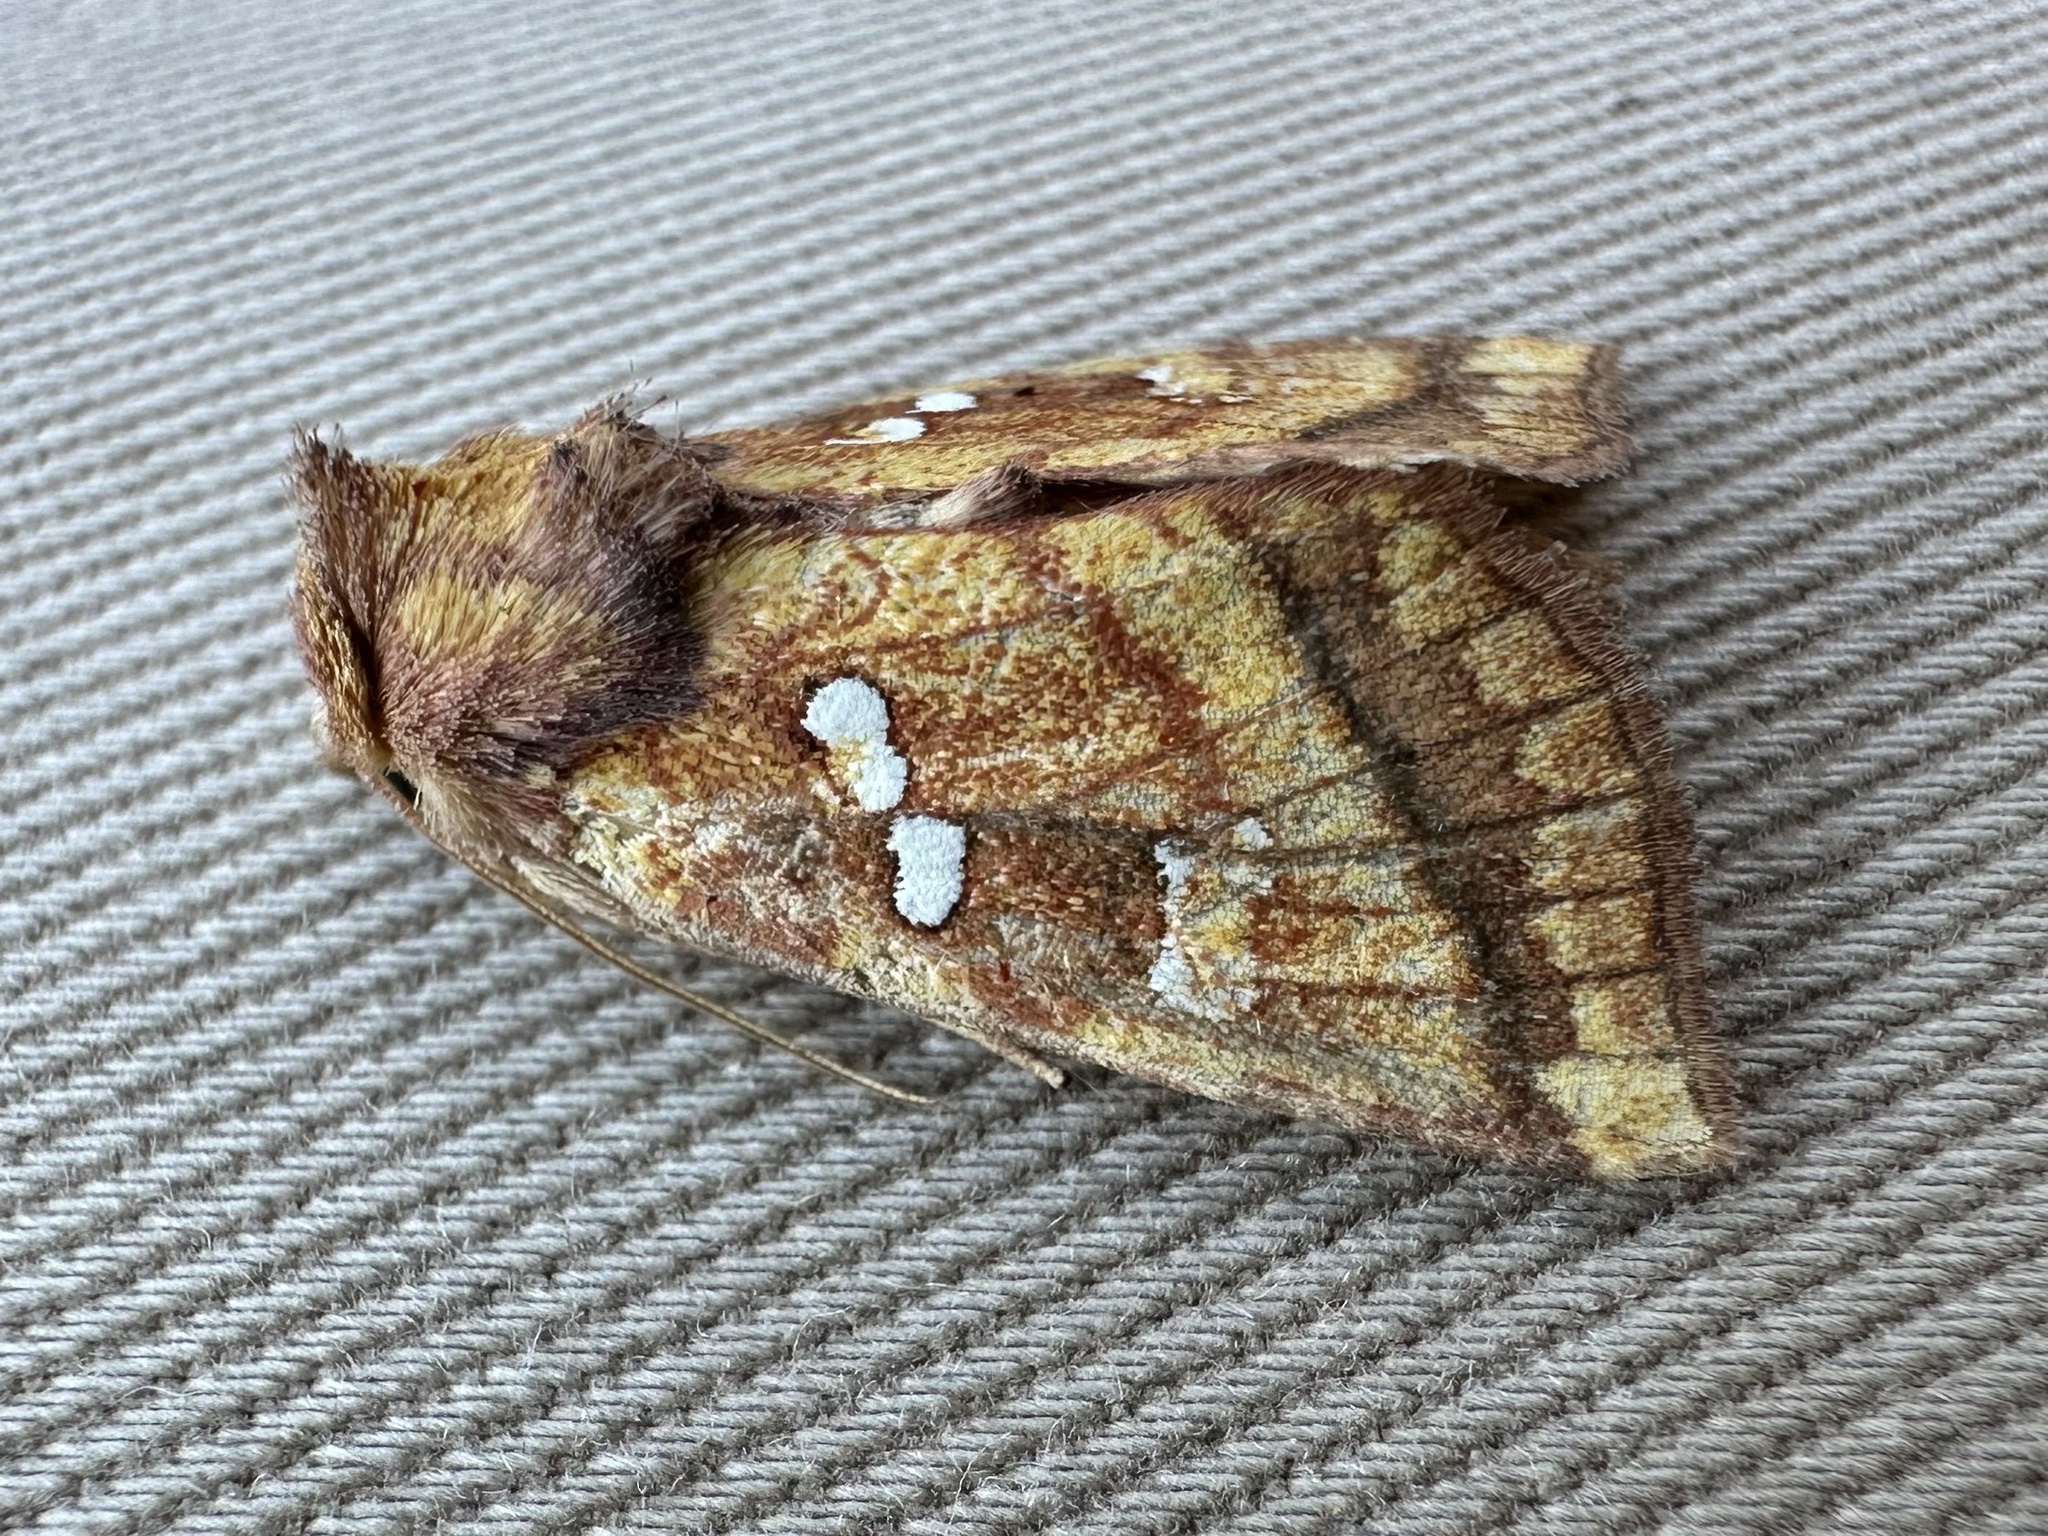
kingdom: Animalia
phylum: Arthropoda
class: Insecta
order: Lepidoptera
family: Noctuidae
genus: Papaipema
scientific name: Papaipema pterisii
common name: Bracken borer moth
